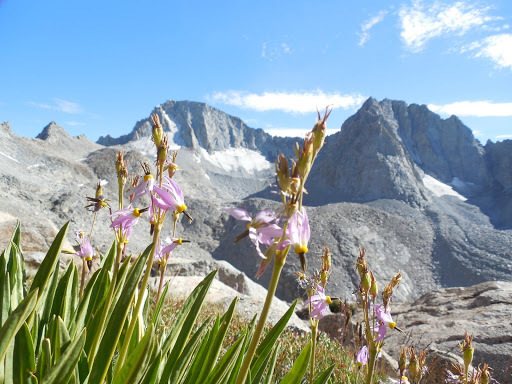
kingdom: Plantae
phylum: Tracheophyta
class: Magnoliopsida
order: Ericales
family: Primulaceae
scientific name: Primulaceae
